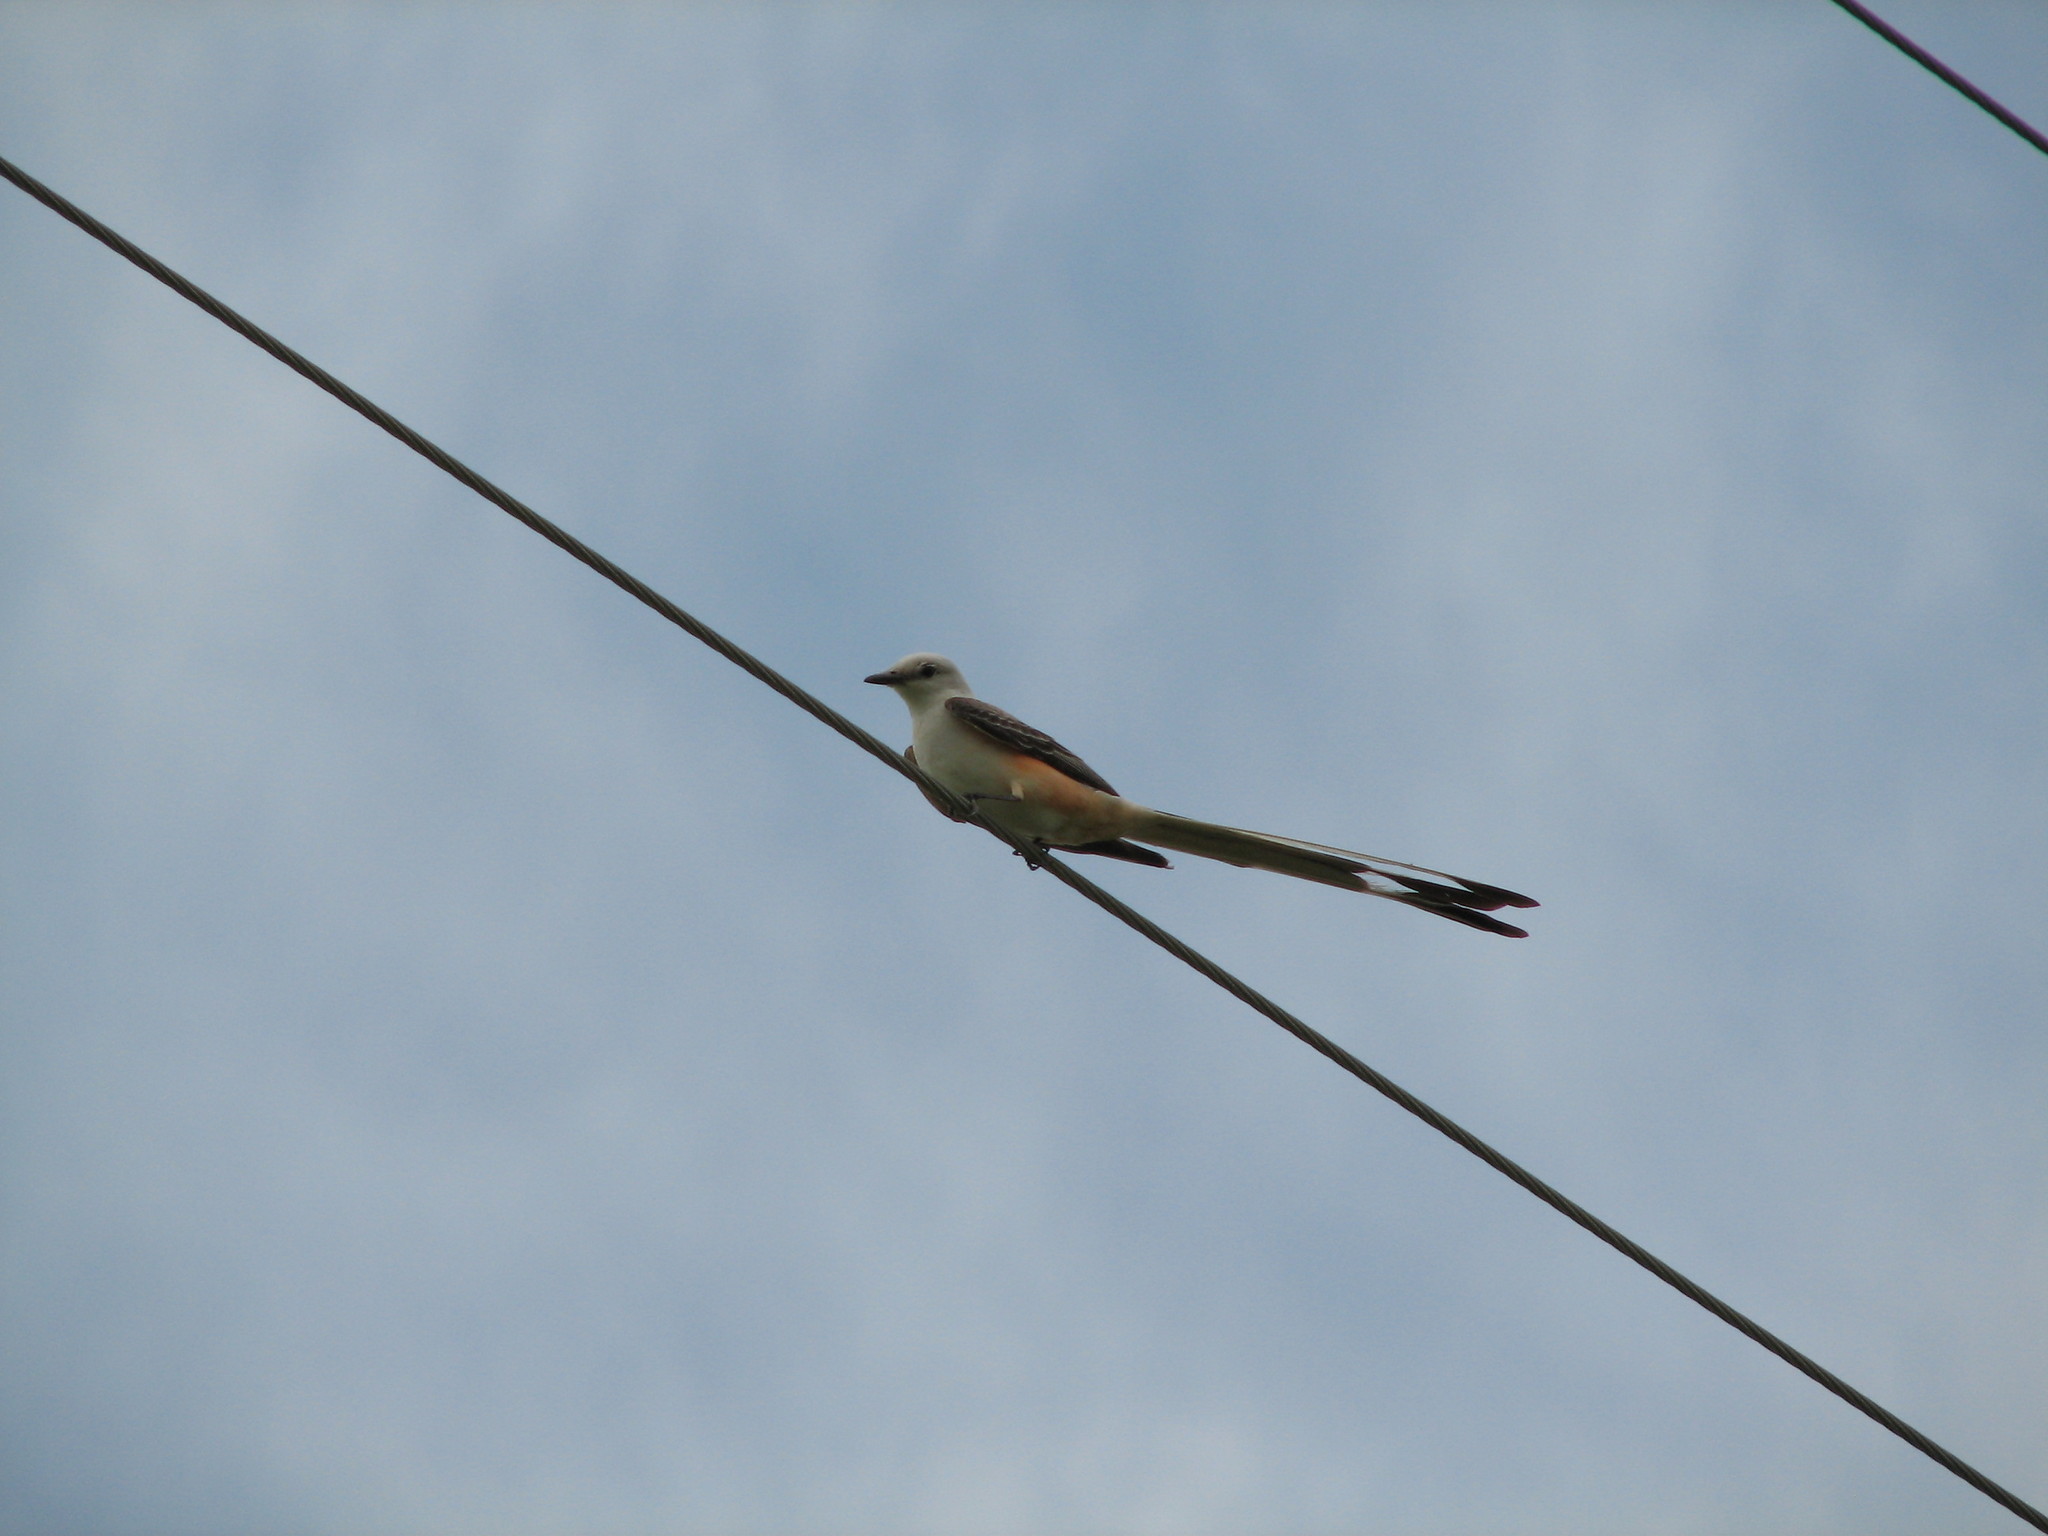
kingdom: Animalia
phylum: Chordata
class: Aves
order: Passeriformes
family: Tyrannidae
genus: Tyrannus
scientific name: Tyrannus forficatus
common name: Scissor-tailed flycatcher
